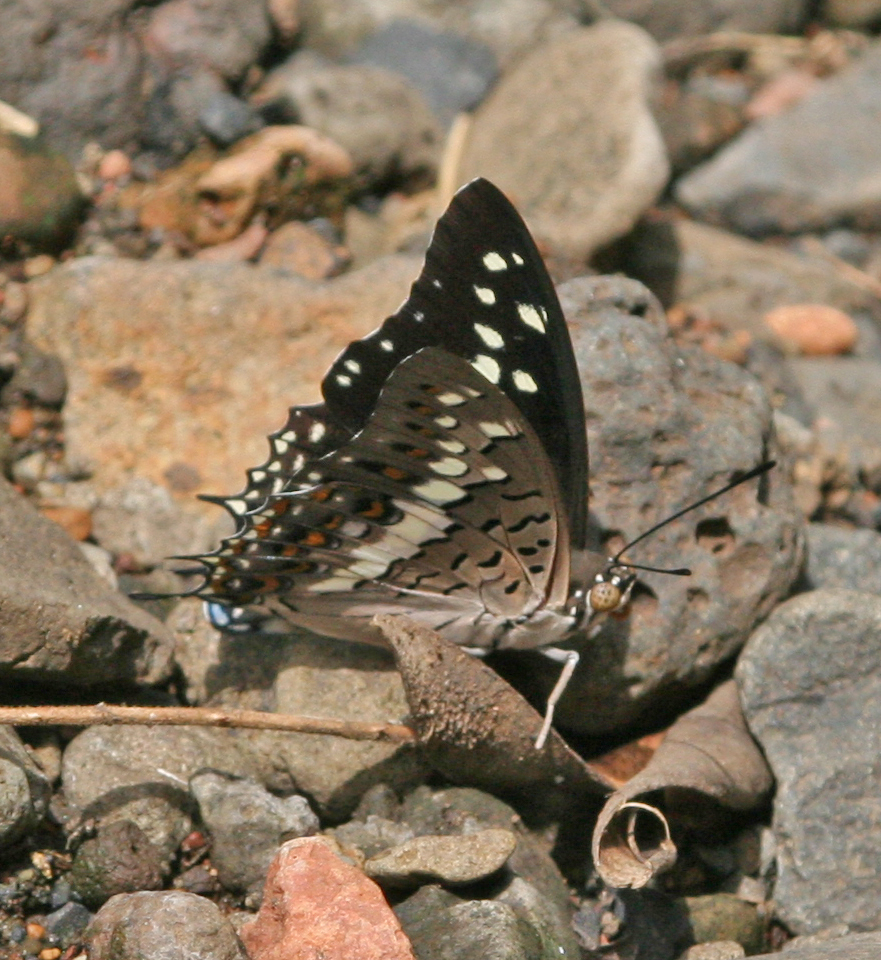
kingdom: Animalia
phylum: Arthropoda
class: Insecta
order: Lepidoptera
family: Nymphalidae
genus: Charaxes
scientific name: Charaxes solon
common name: Black rajah
